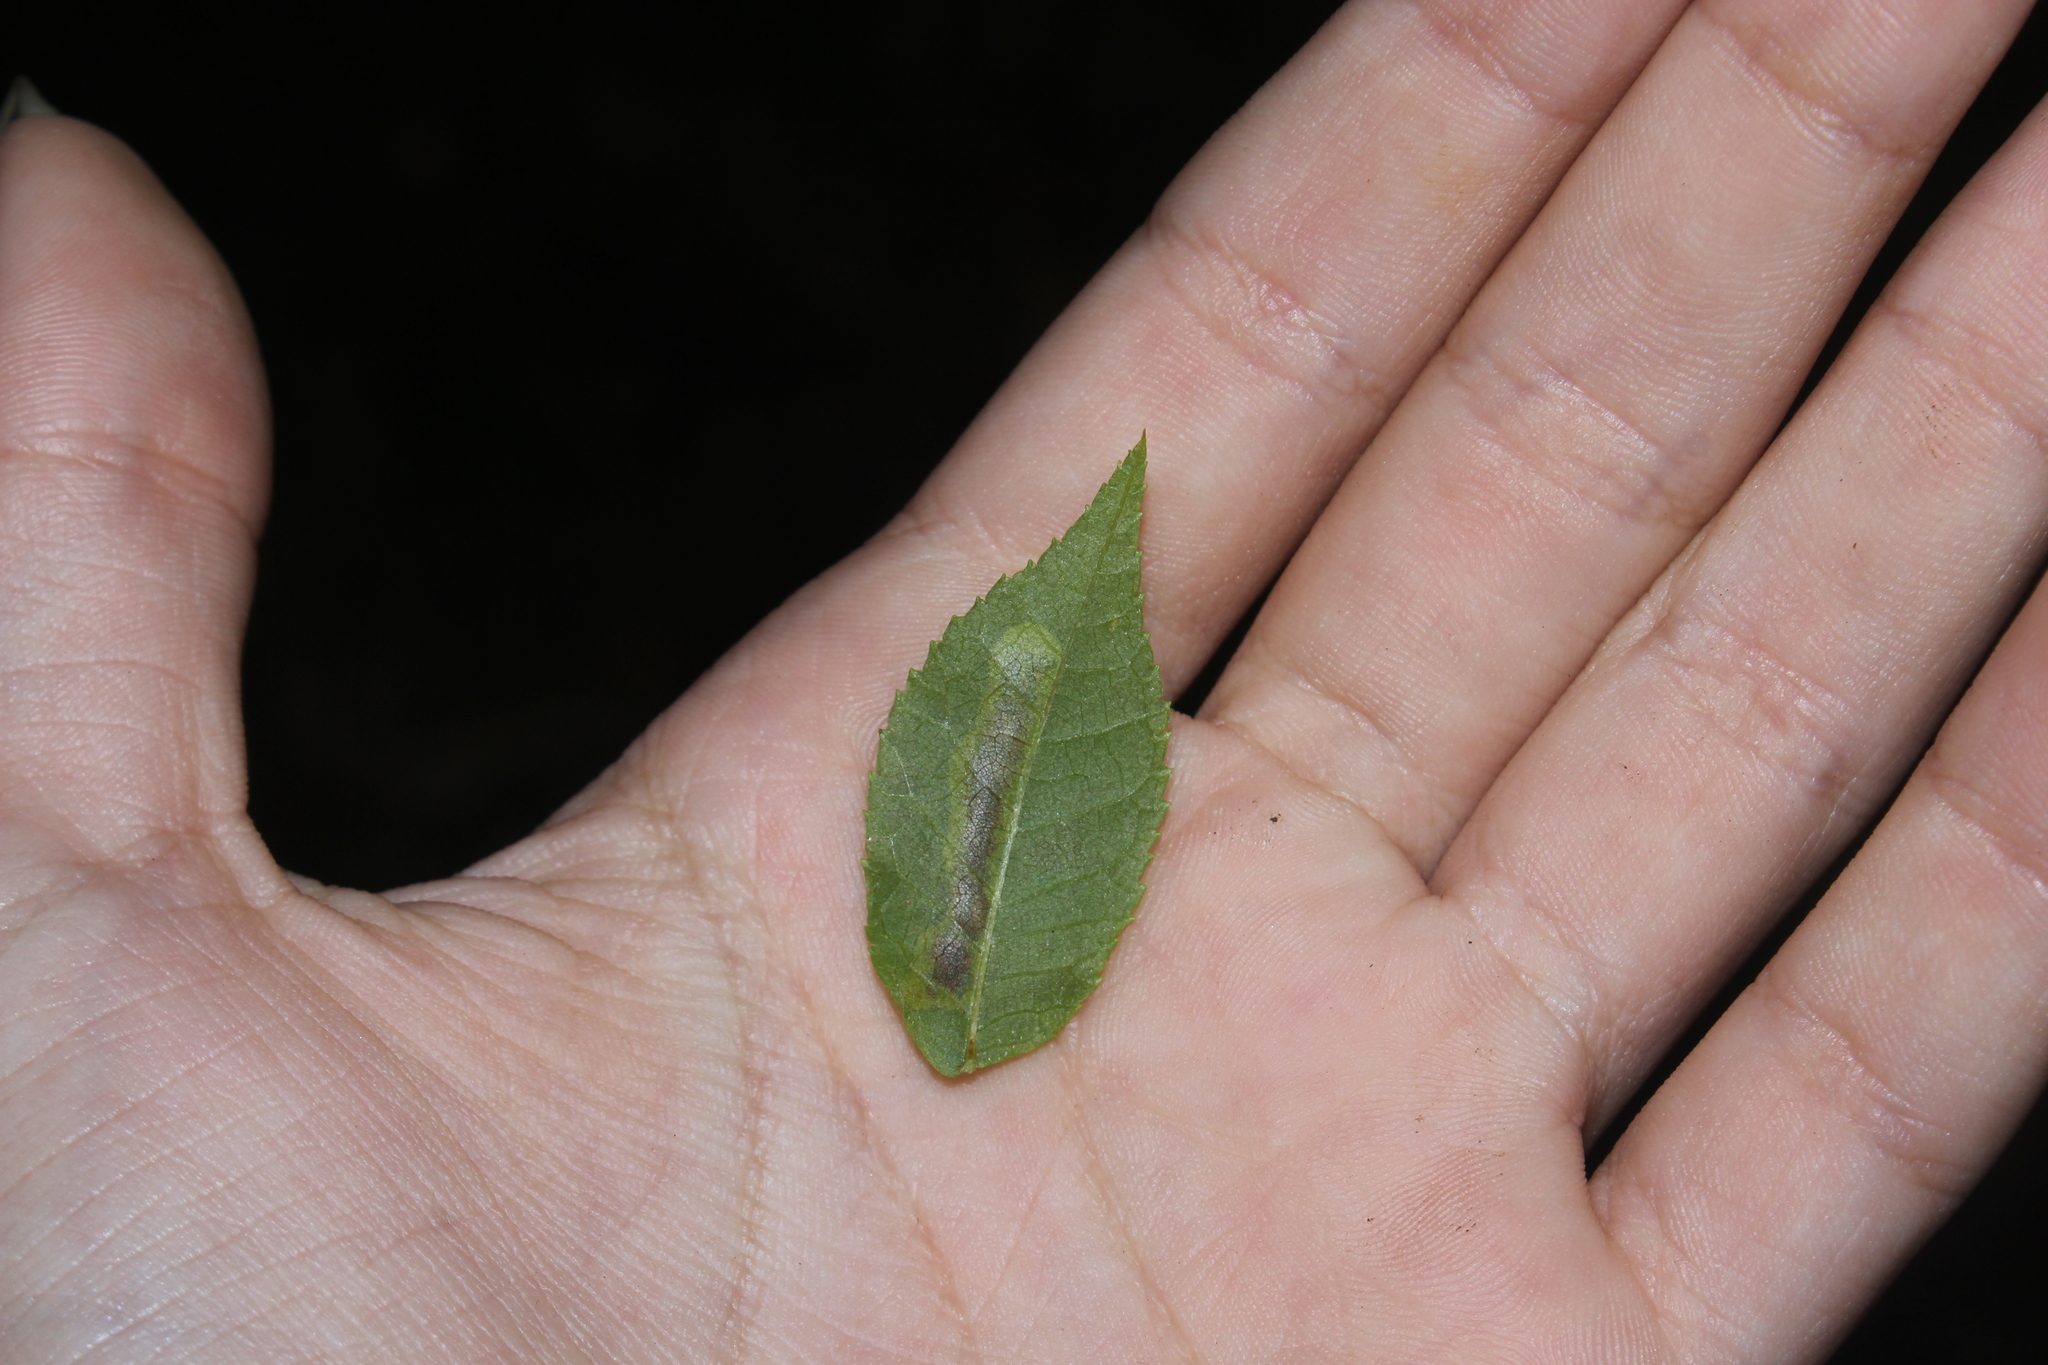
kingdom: Animalia
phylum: Arthropoda
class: Insecta
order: Lepidoptera
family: Gracillariidae
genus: Cameraria
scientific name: Cameraria caryaefoliella
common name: Pecan leafminer moth
